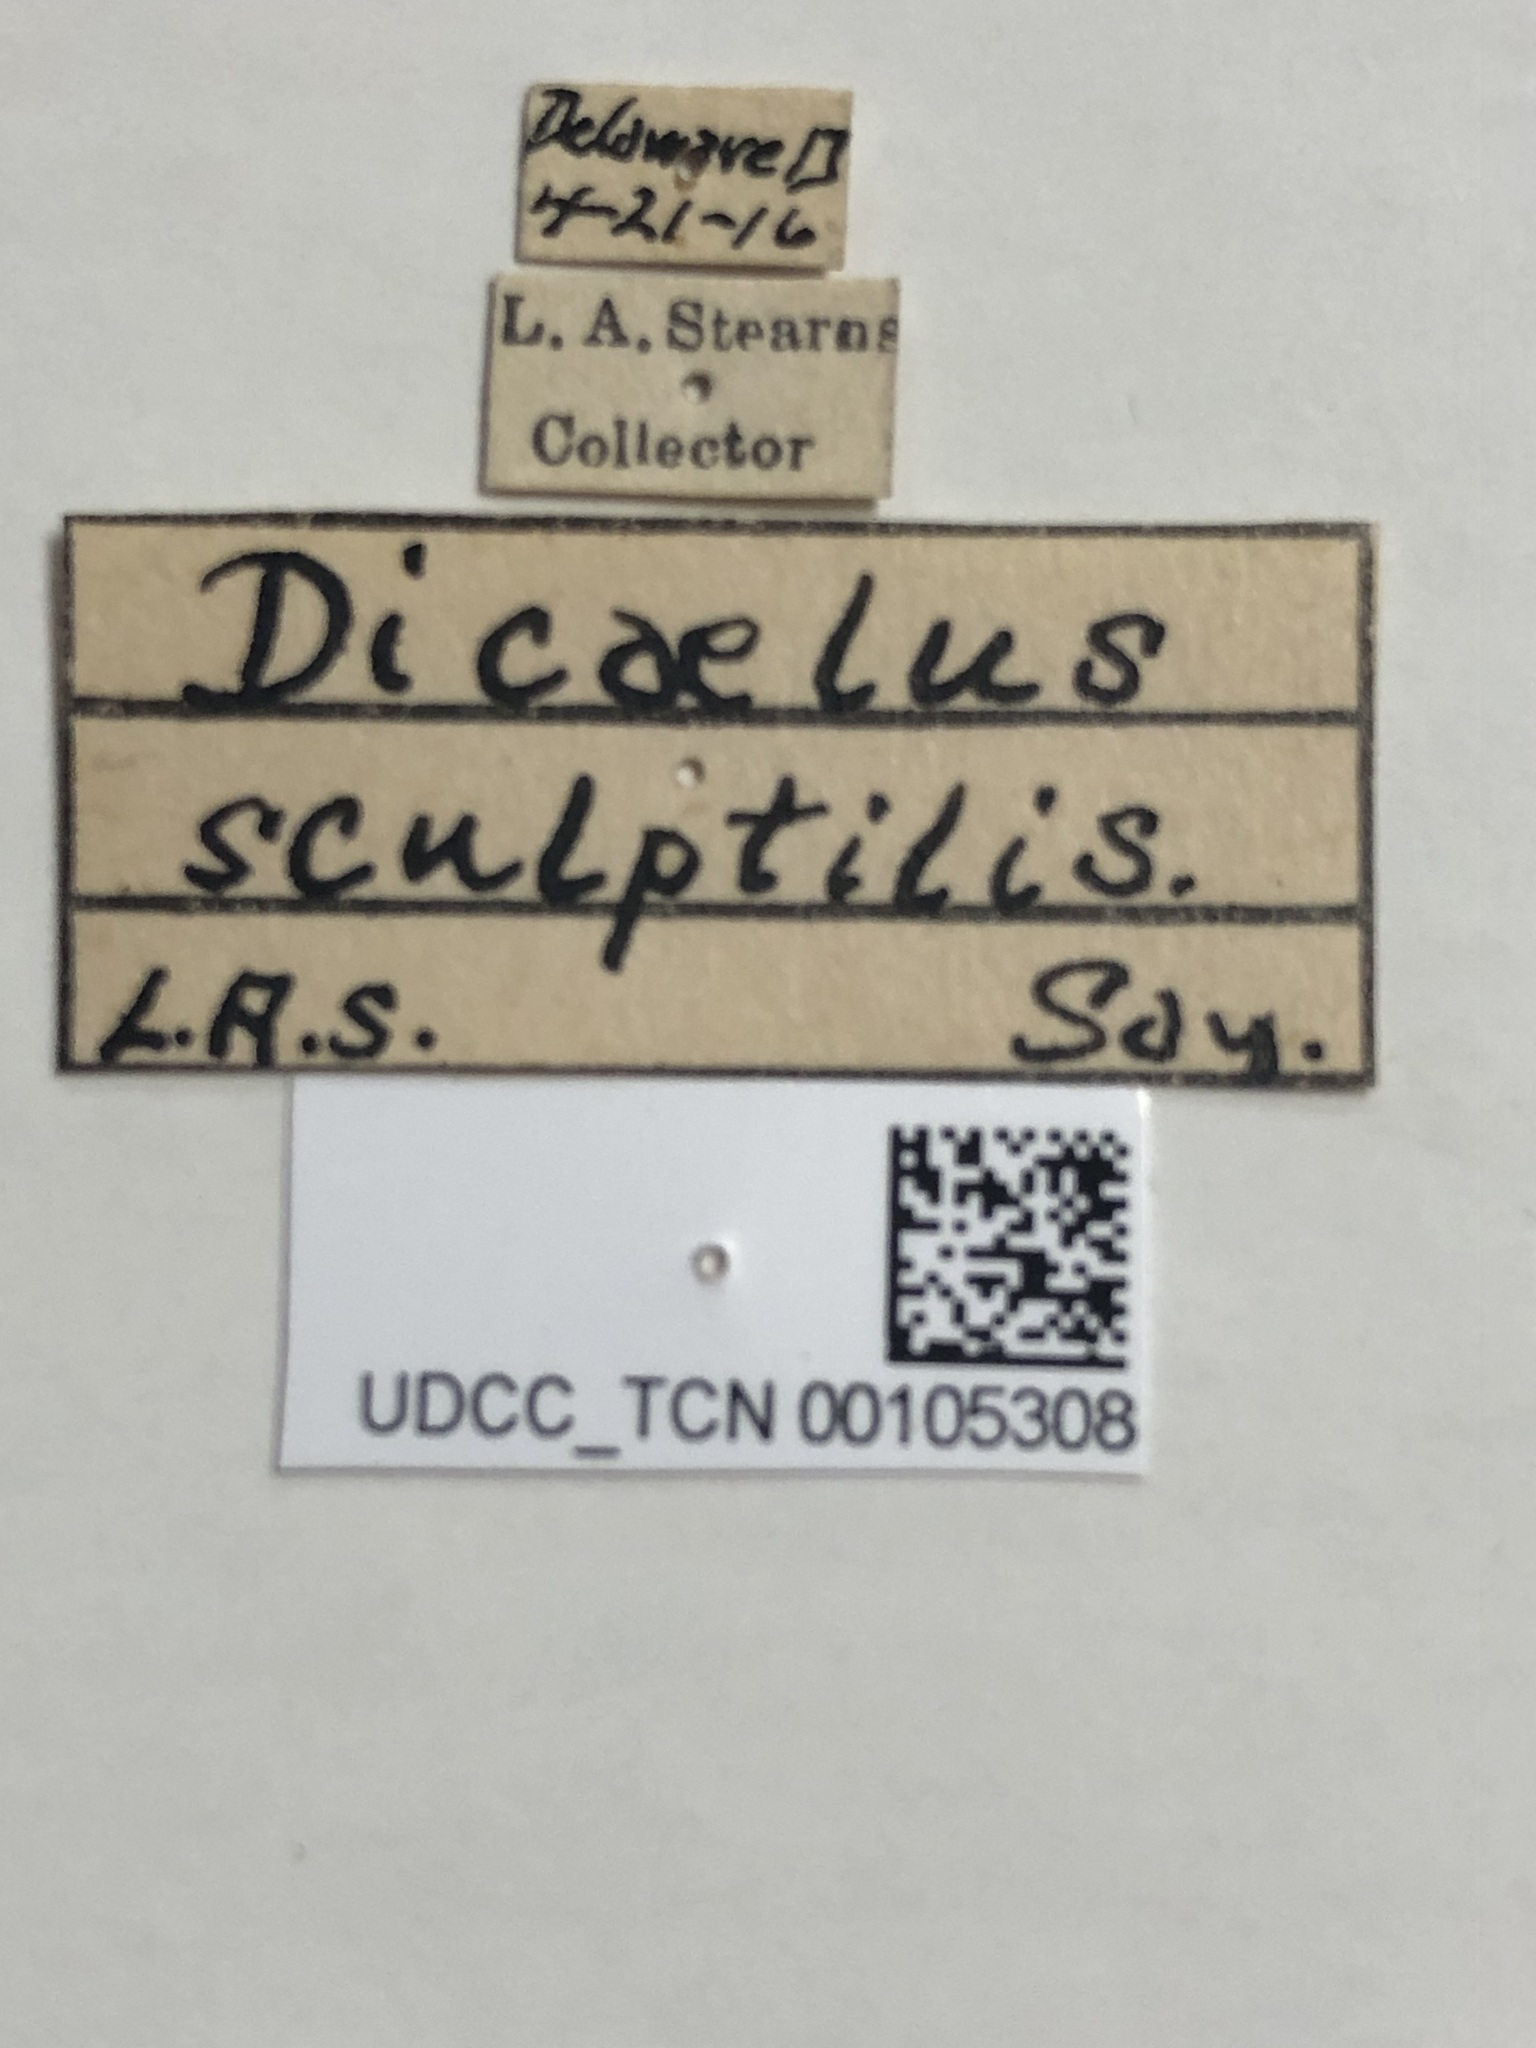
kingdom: Animalia
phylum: Arthropoda
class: Insecta
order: Coleoptera
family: Carabidae
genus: Dicaelus
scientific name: Dicaelus sculptilis
